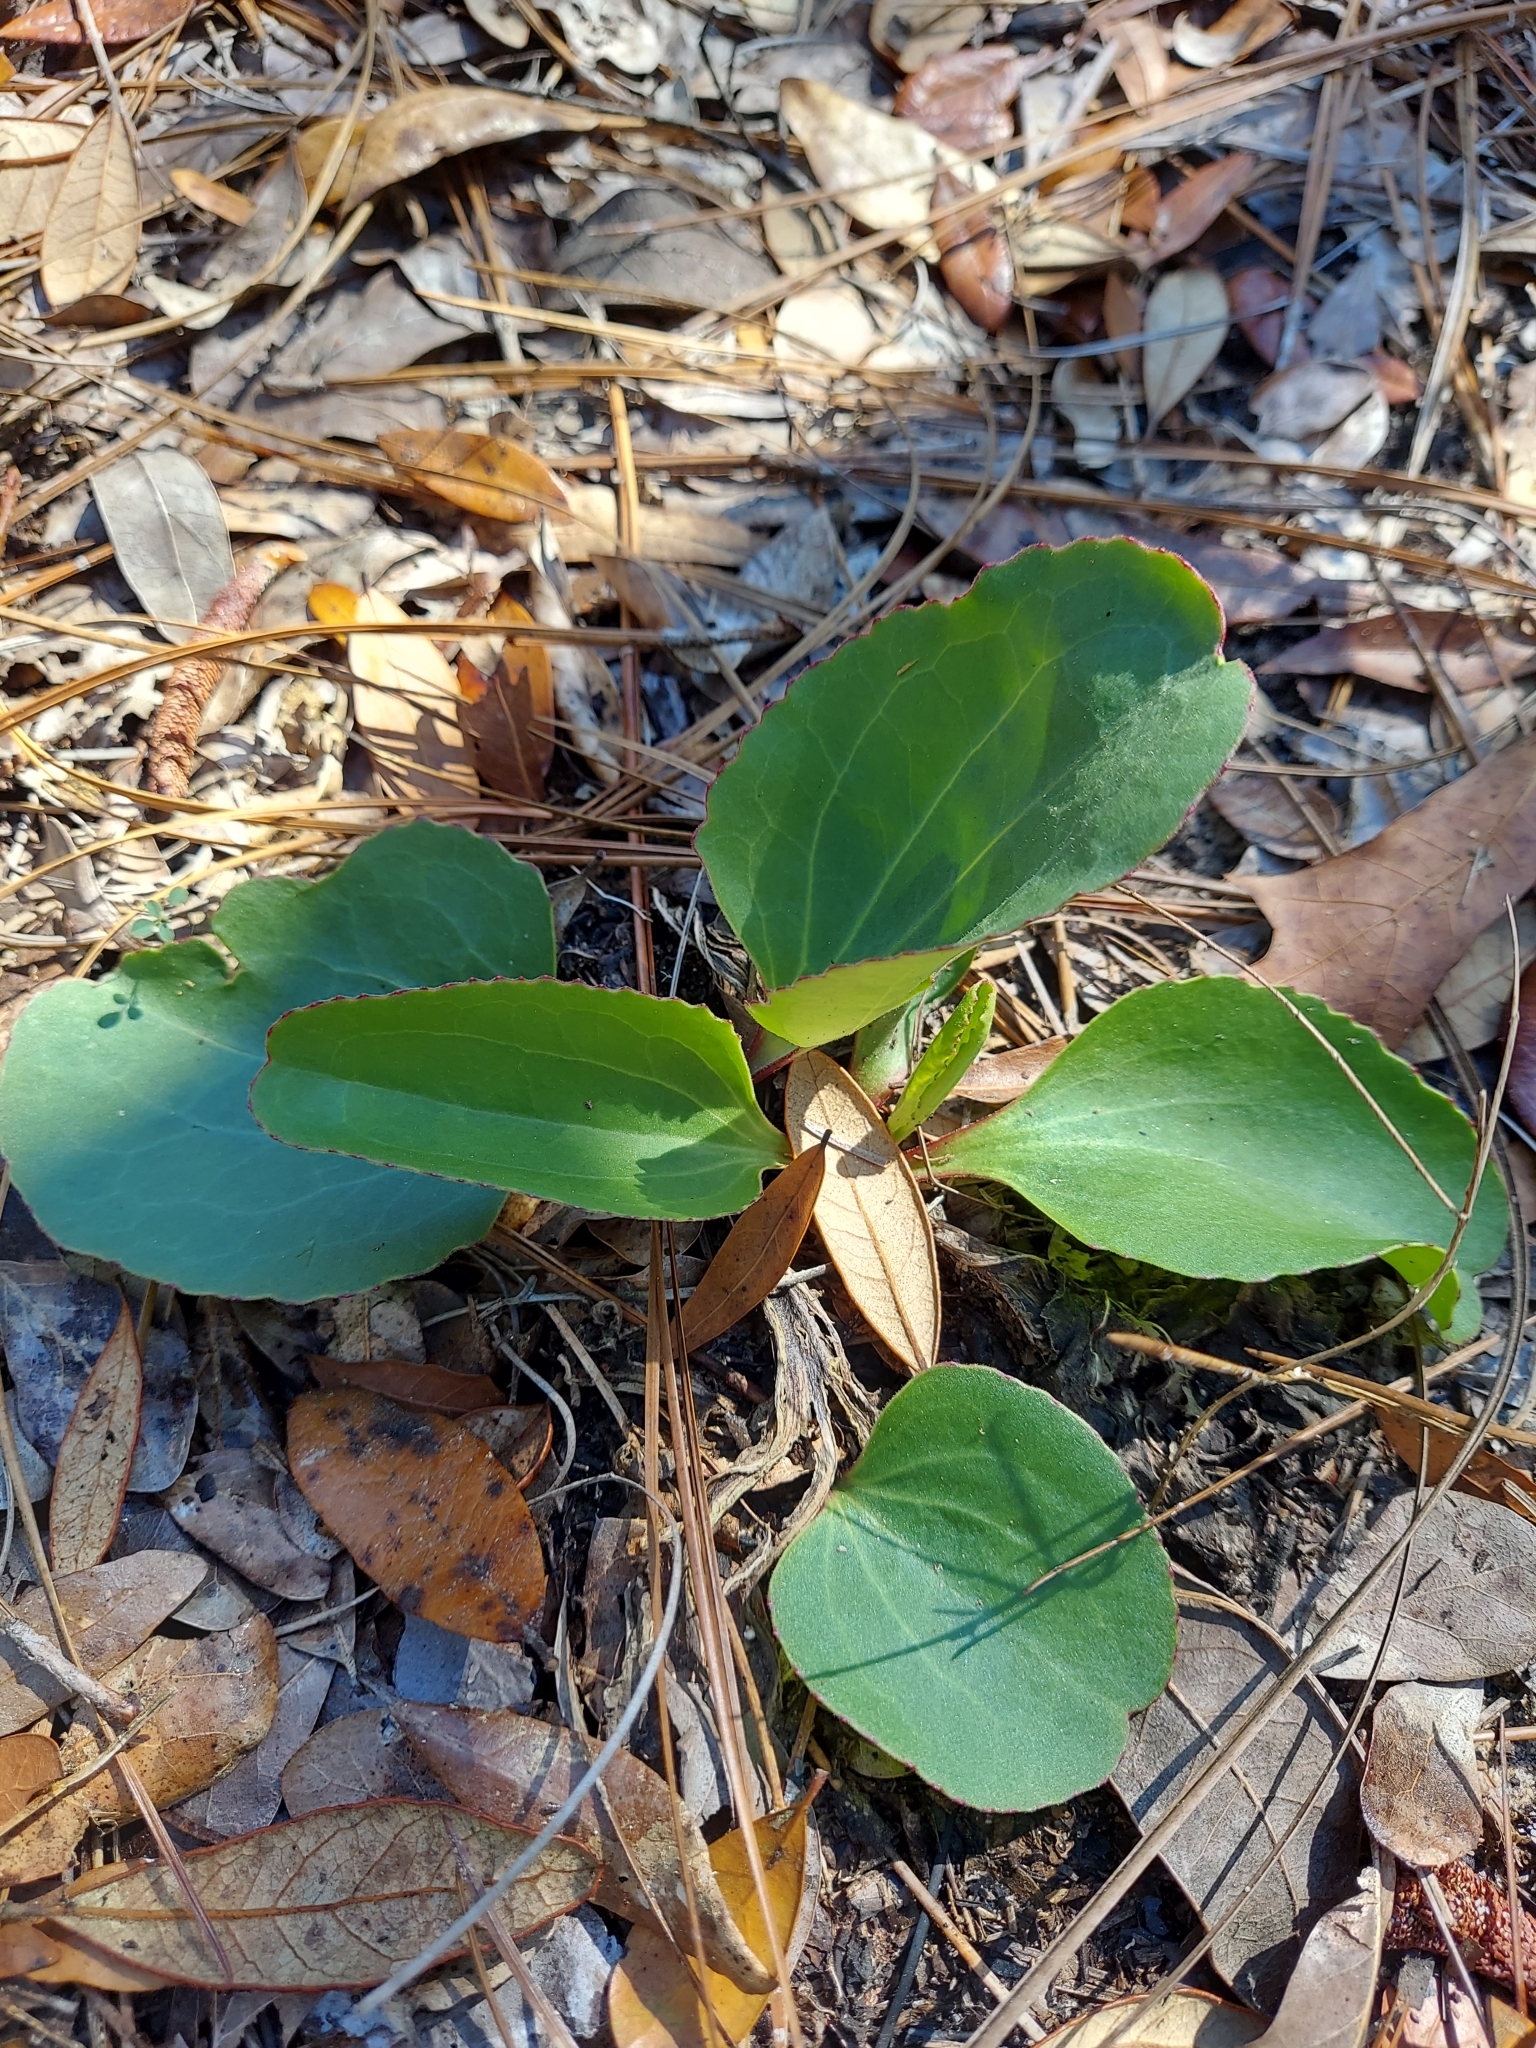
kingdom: Plantae
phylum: Tracheophyta
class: Magnoliopsida
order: Asterales
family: Asteraceae
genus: Arnoglossum
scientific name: Arnoglossum floridanum
